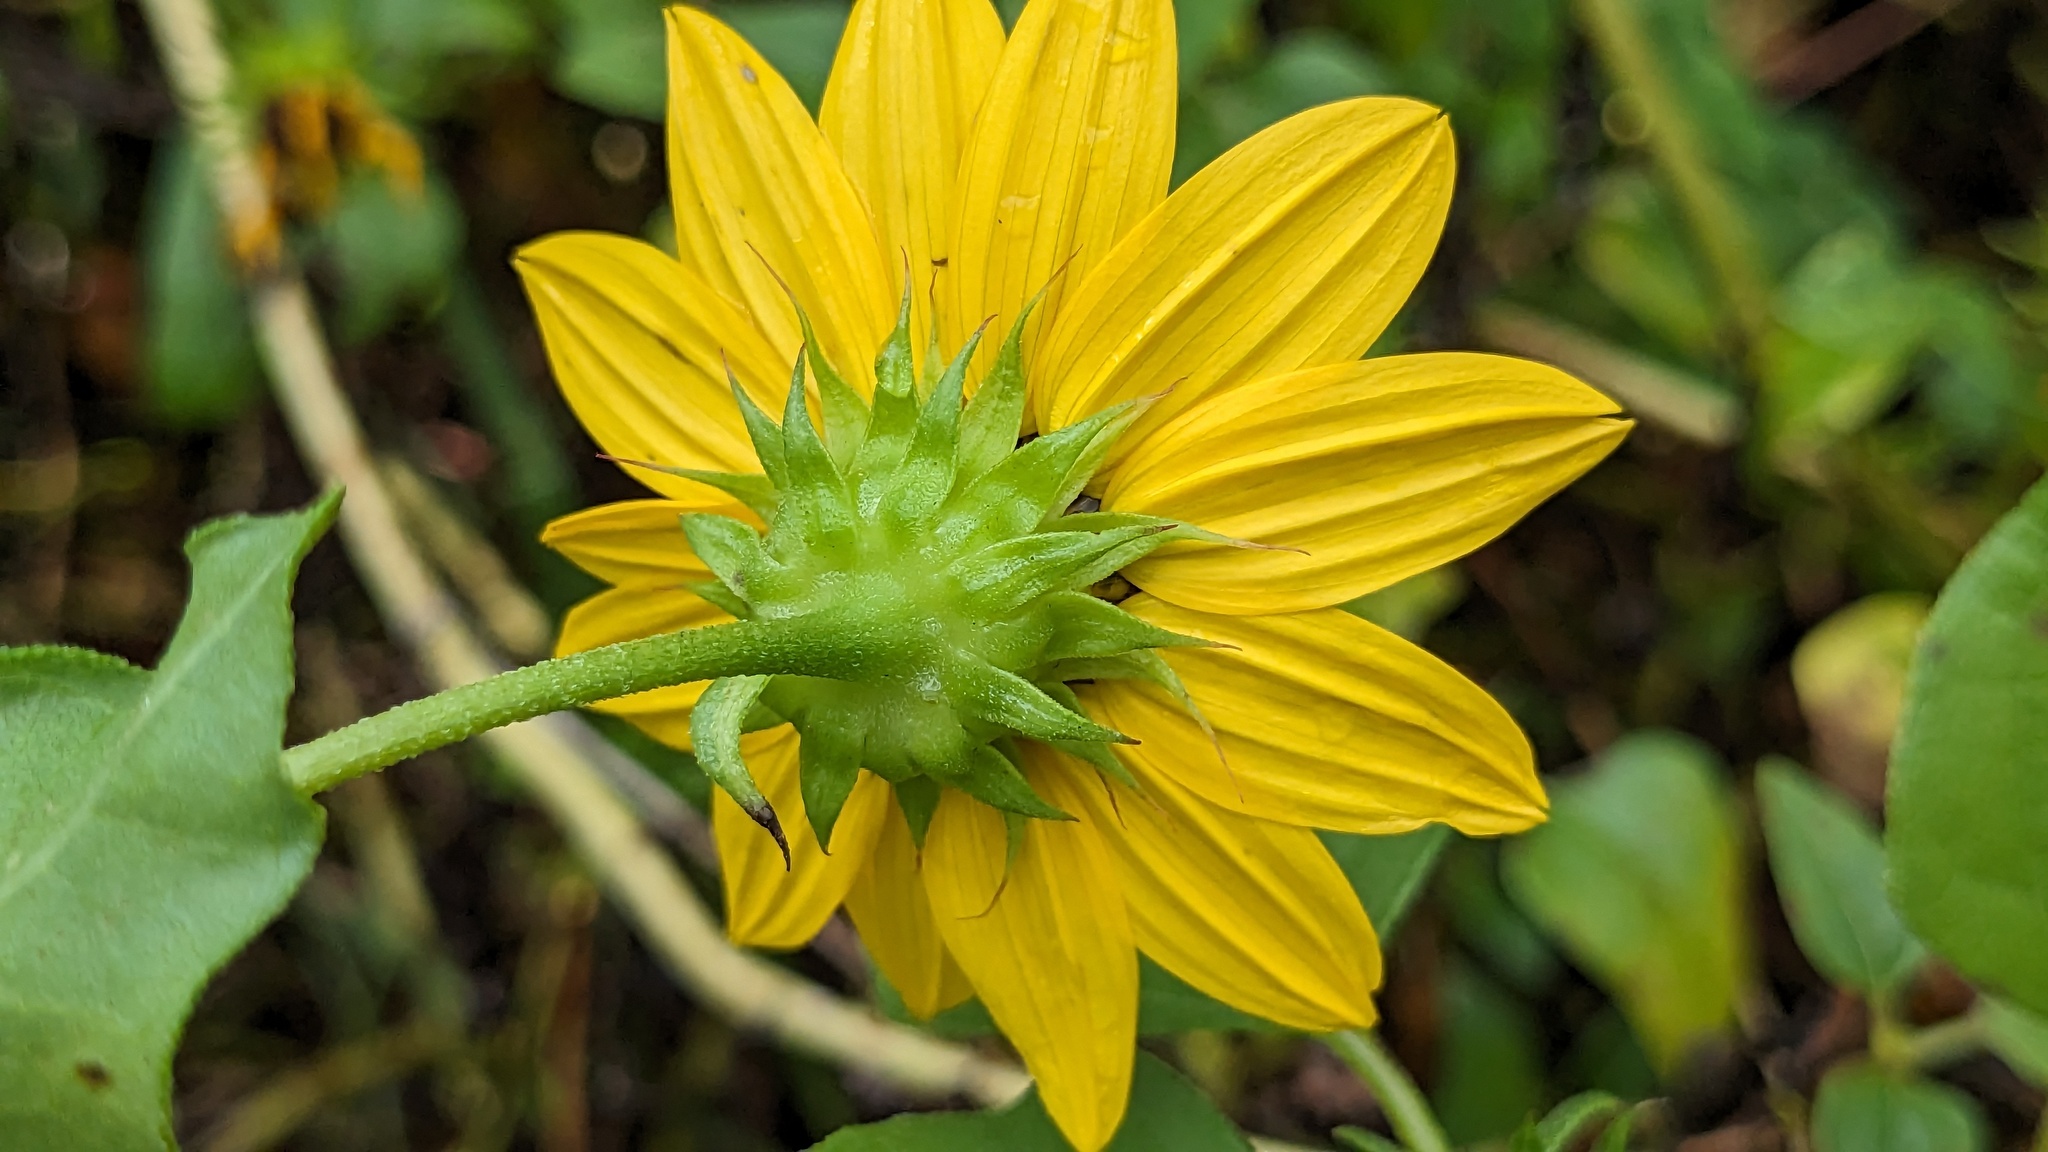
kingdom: Plantae
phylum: Tracheophyta
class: Magnoliopsida
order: Asterales
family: Asteraceae
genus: Helianthus
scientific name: Helianthus debilis
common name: Weak sunflower
